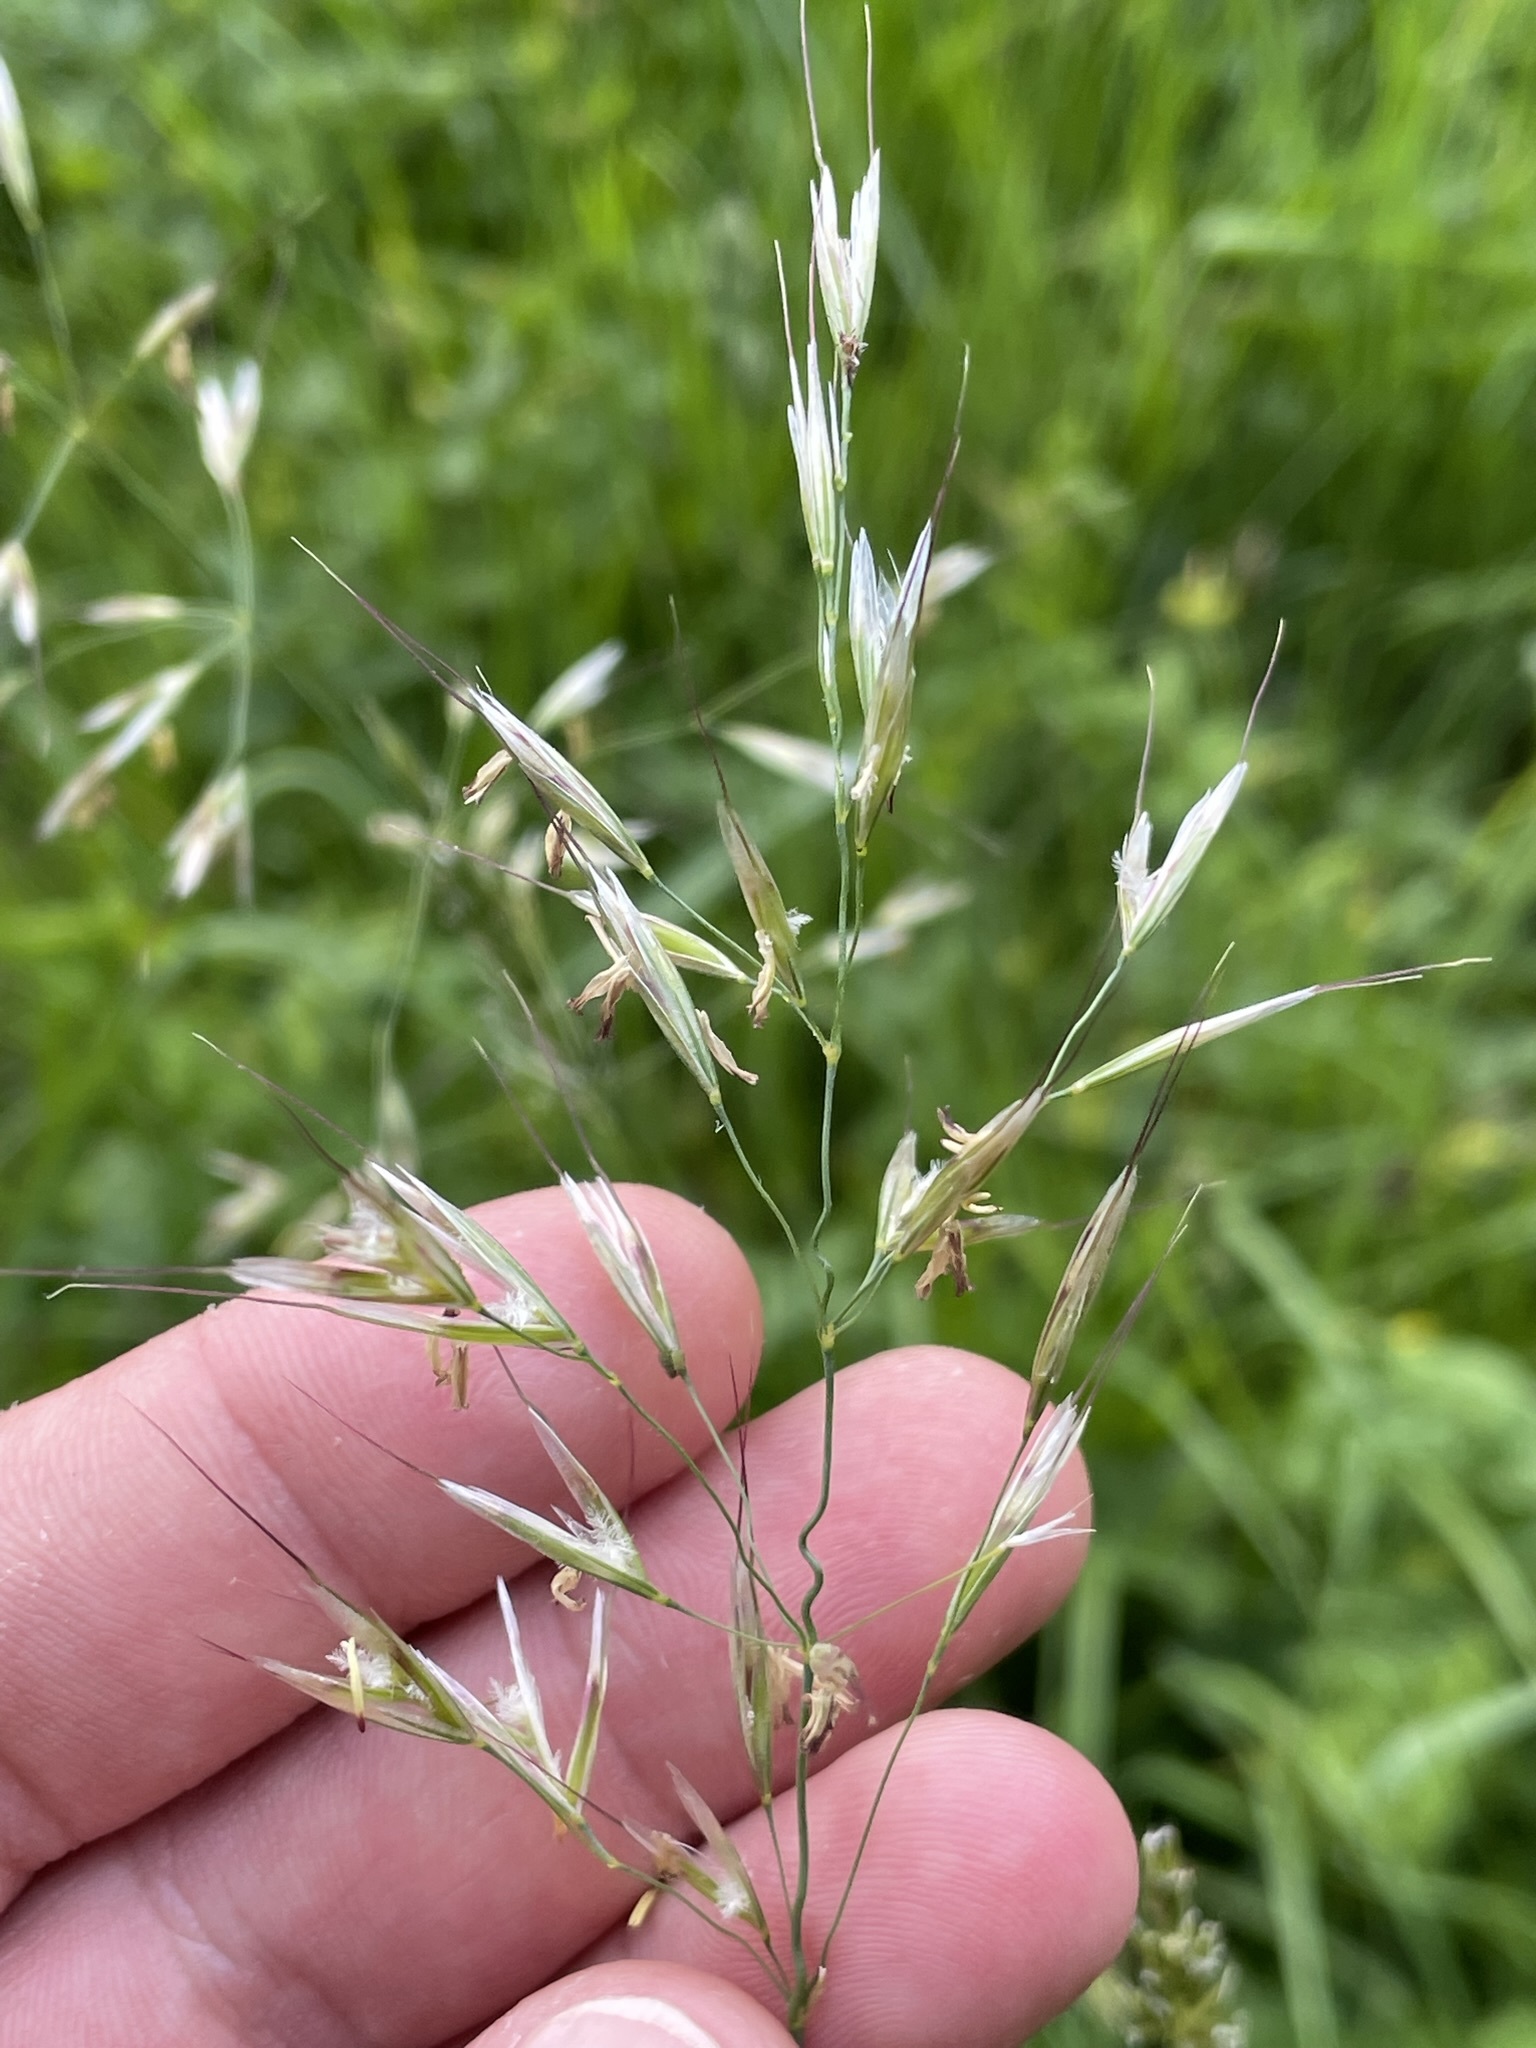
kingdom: Plantae
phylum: Tracheophyta
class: Liliopsida
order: Poales
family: Poaceae
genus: Avenula
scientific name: Avenula pubescens
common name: Downy alpine oatgrass
